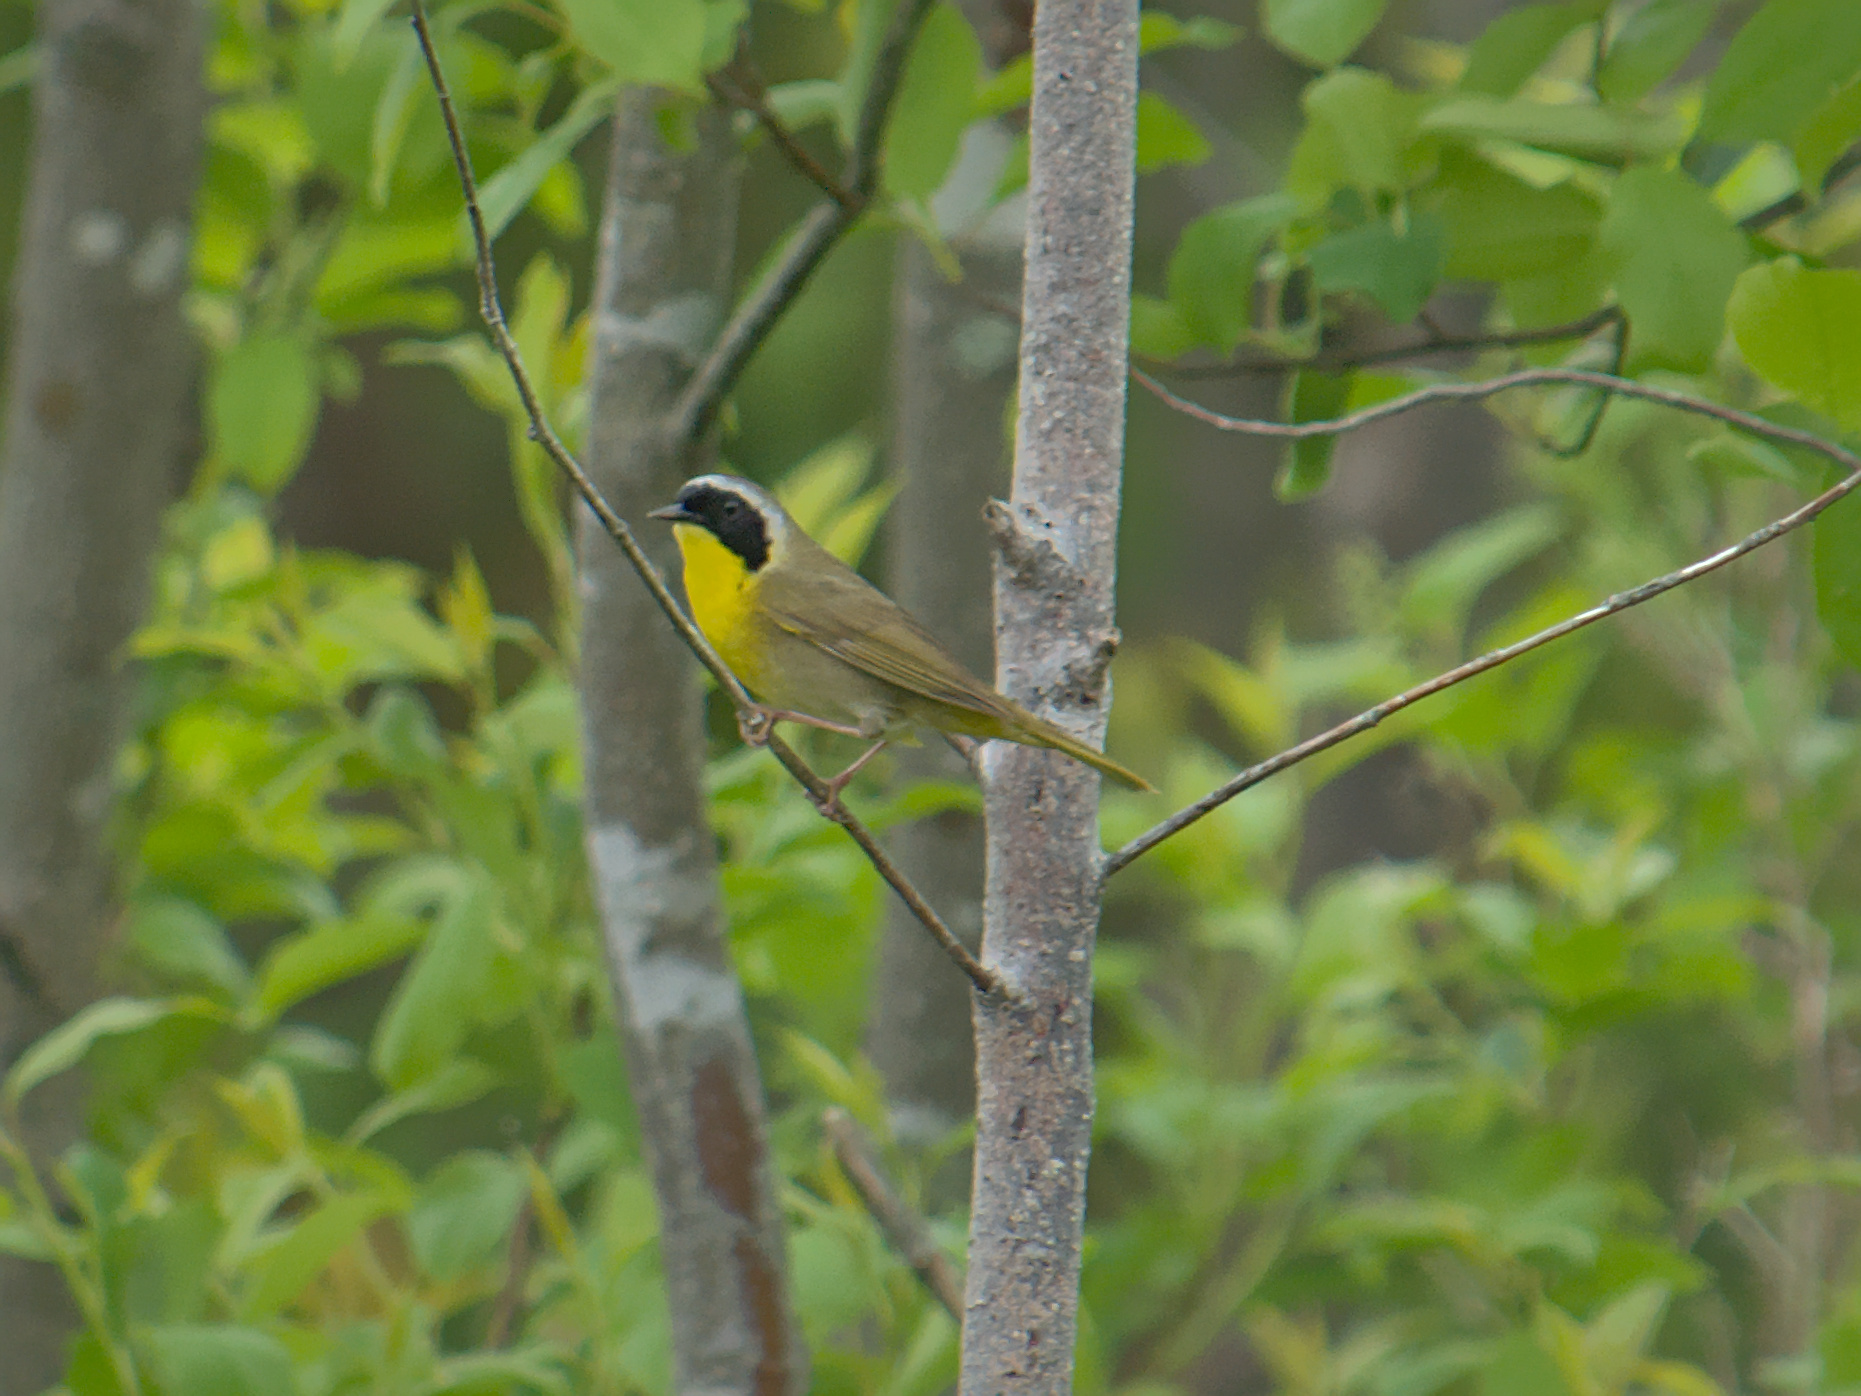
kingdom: Animalia
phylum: Chordata
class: Aves
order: Passeriformes
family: Parulidae
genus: Geothlypis
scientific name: Geothlypis trichas
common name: Common yellowthroat
